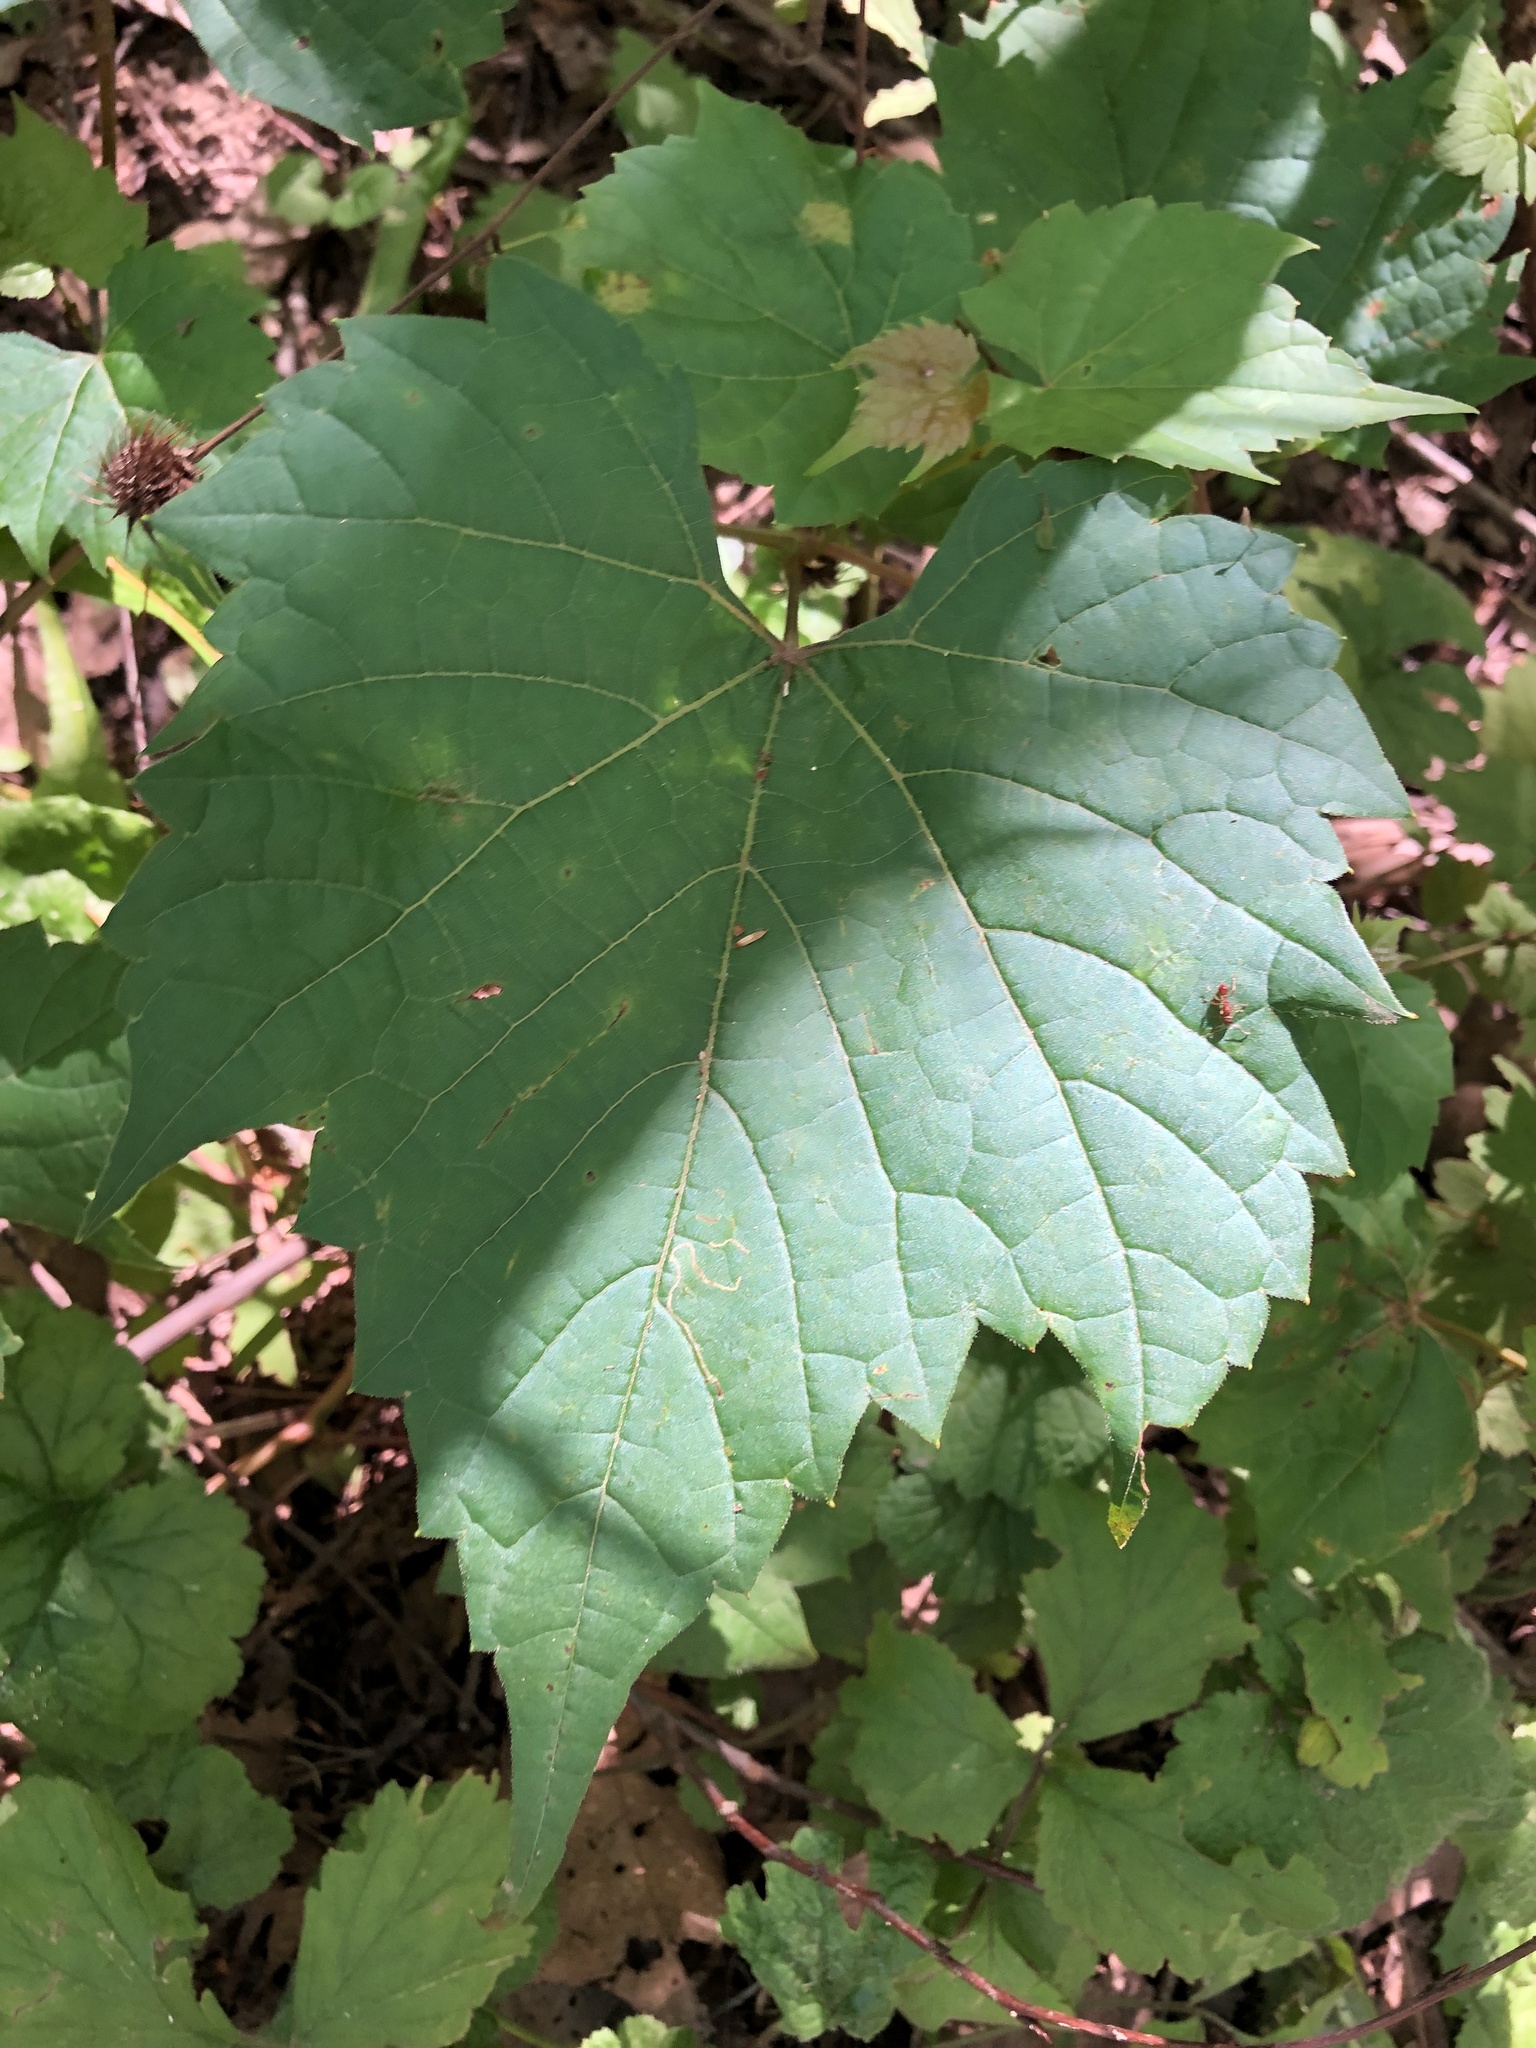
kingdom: Plantae
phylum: Tracheophyta
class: Magnoliopsida
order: Vitales
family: Vitaceae
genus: Vitis
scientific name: Vitis riparia
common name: Frost grape
